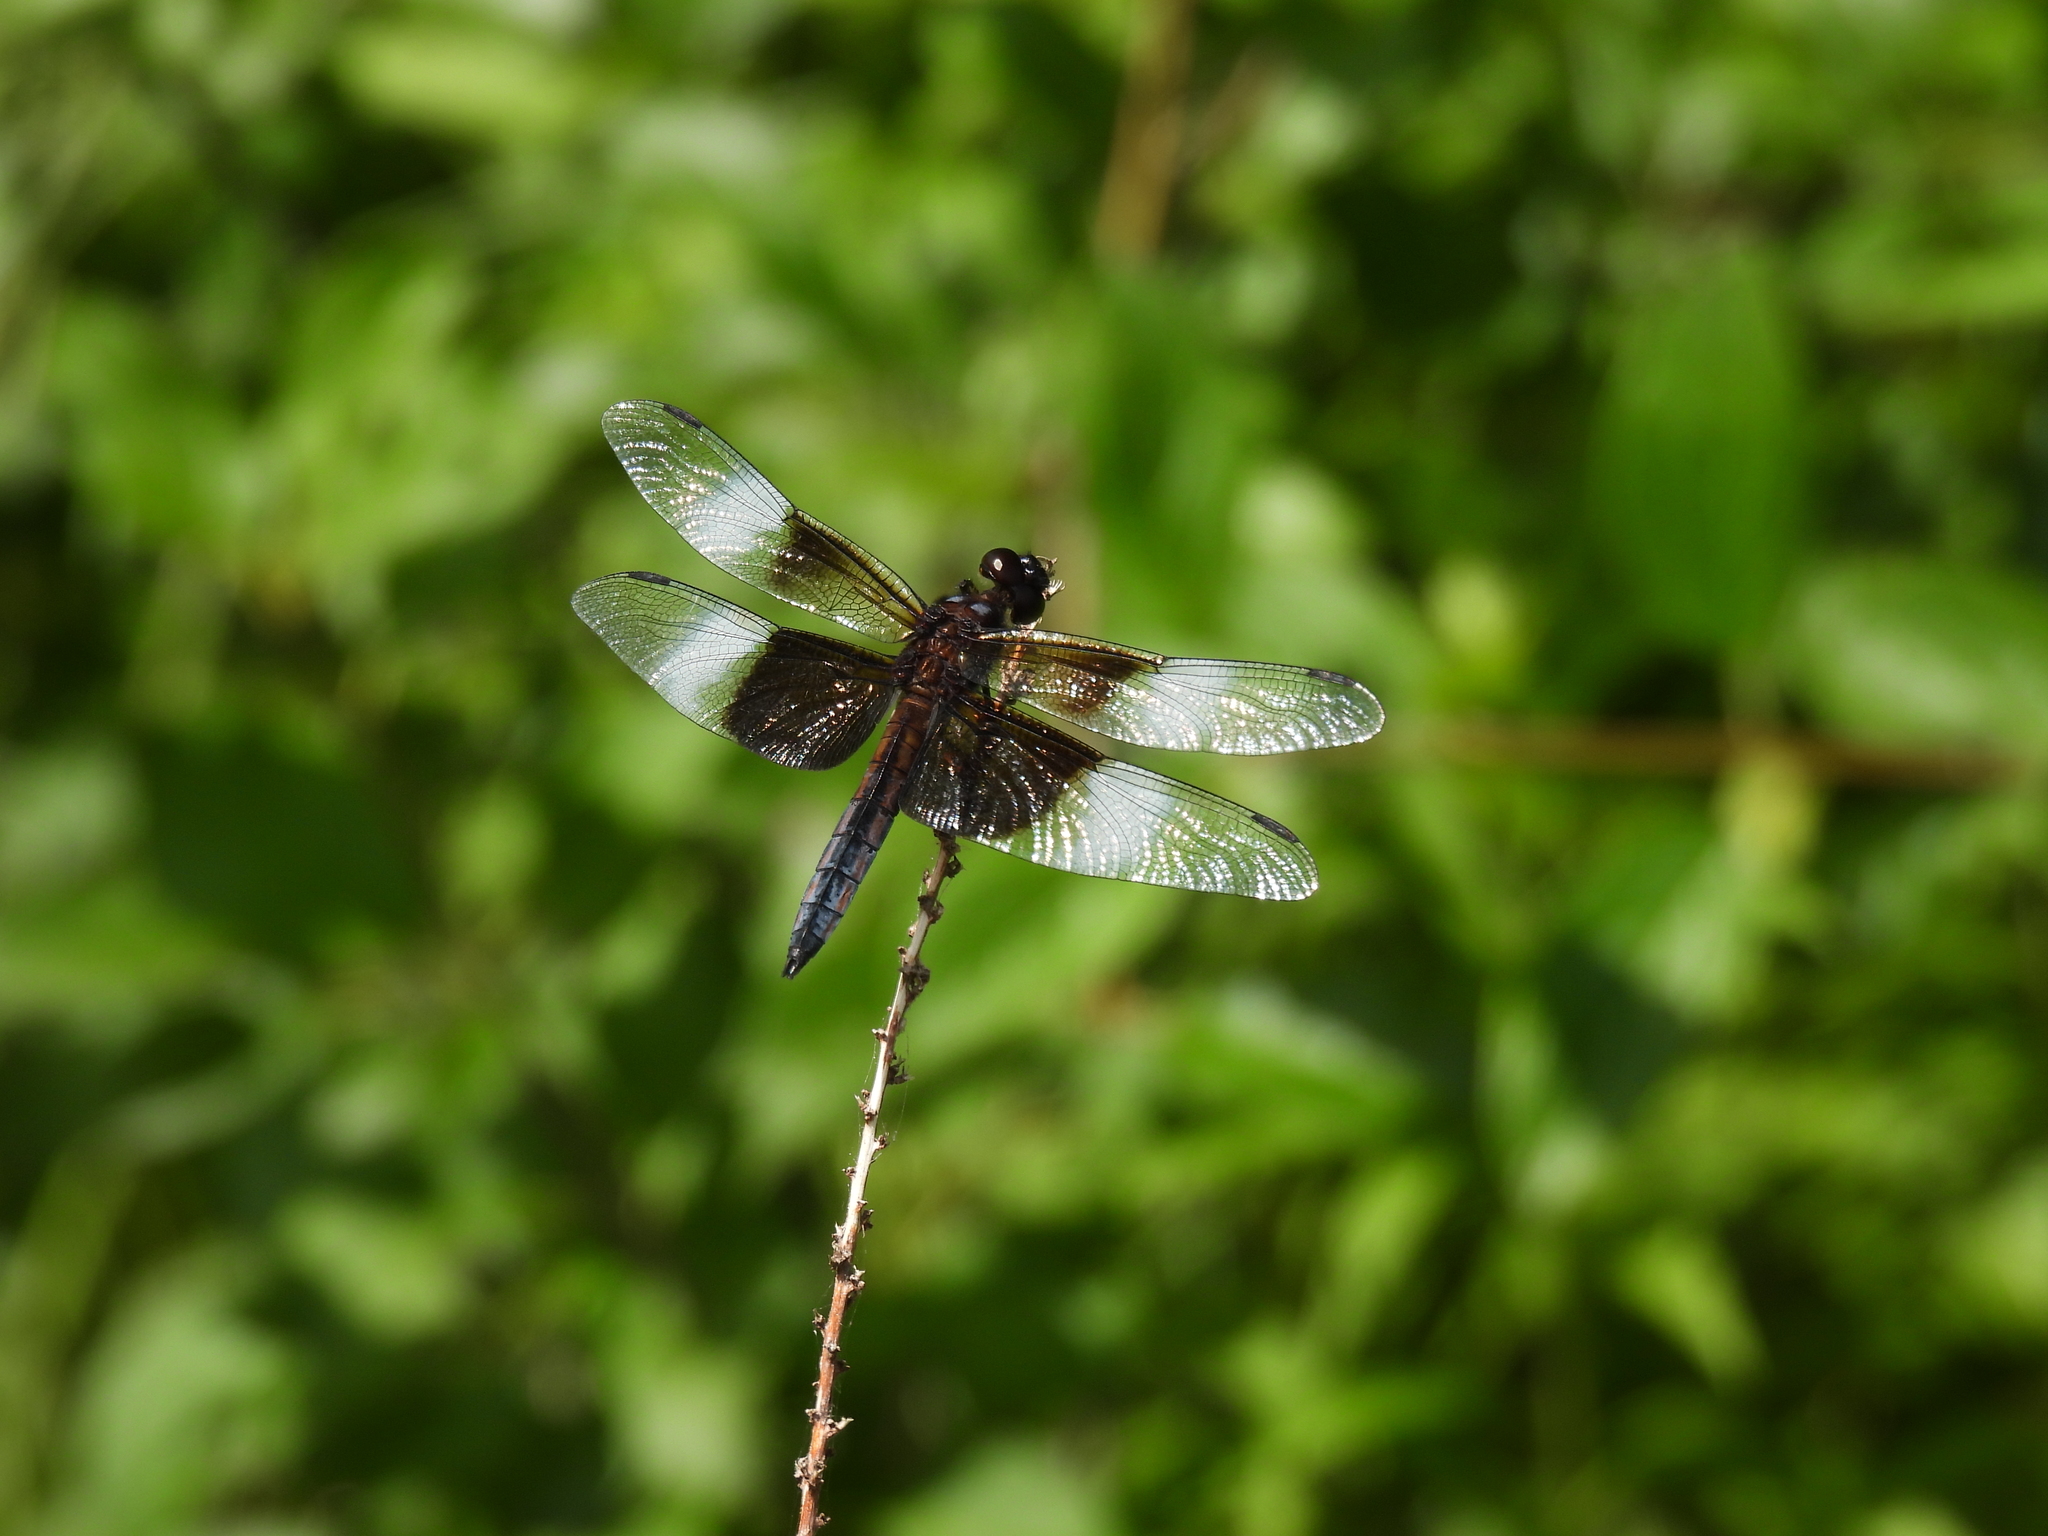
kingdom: Animalia
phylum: Arthropoda
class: Insecta
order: Odonata
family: Libellulidae
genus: Libellula
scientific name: Libellula luctuosa
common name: Widow skimmer
